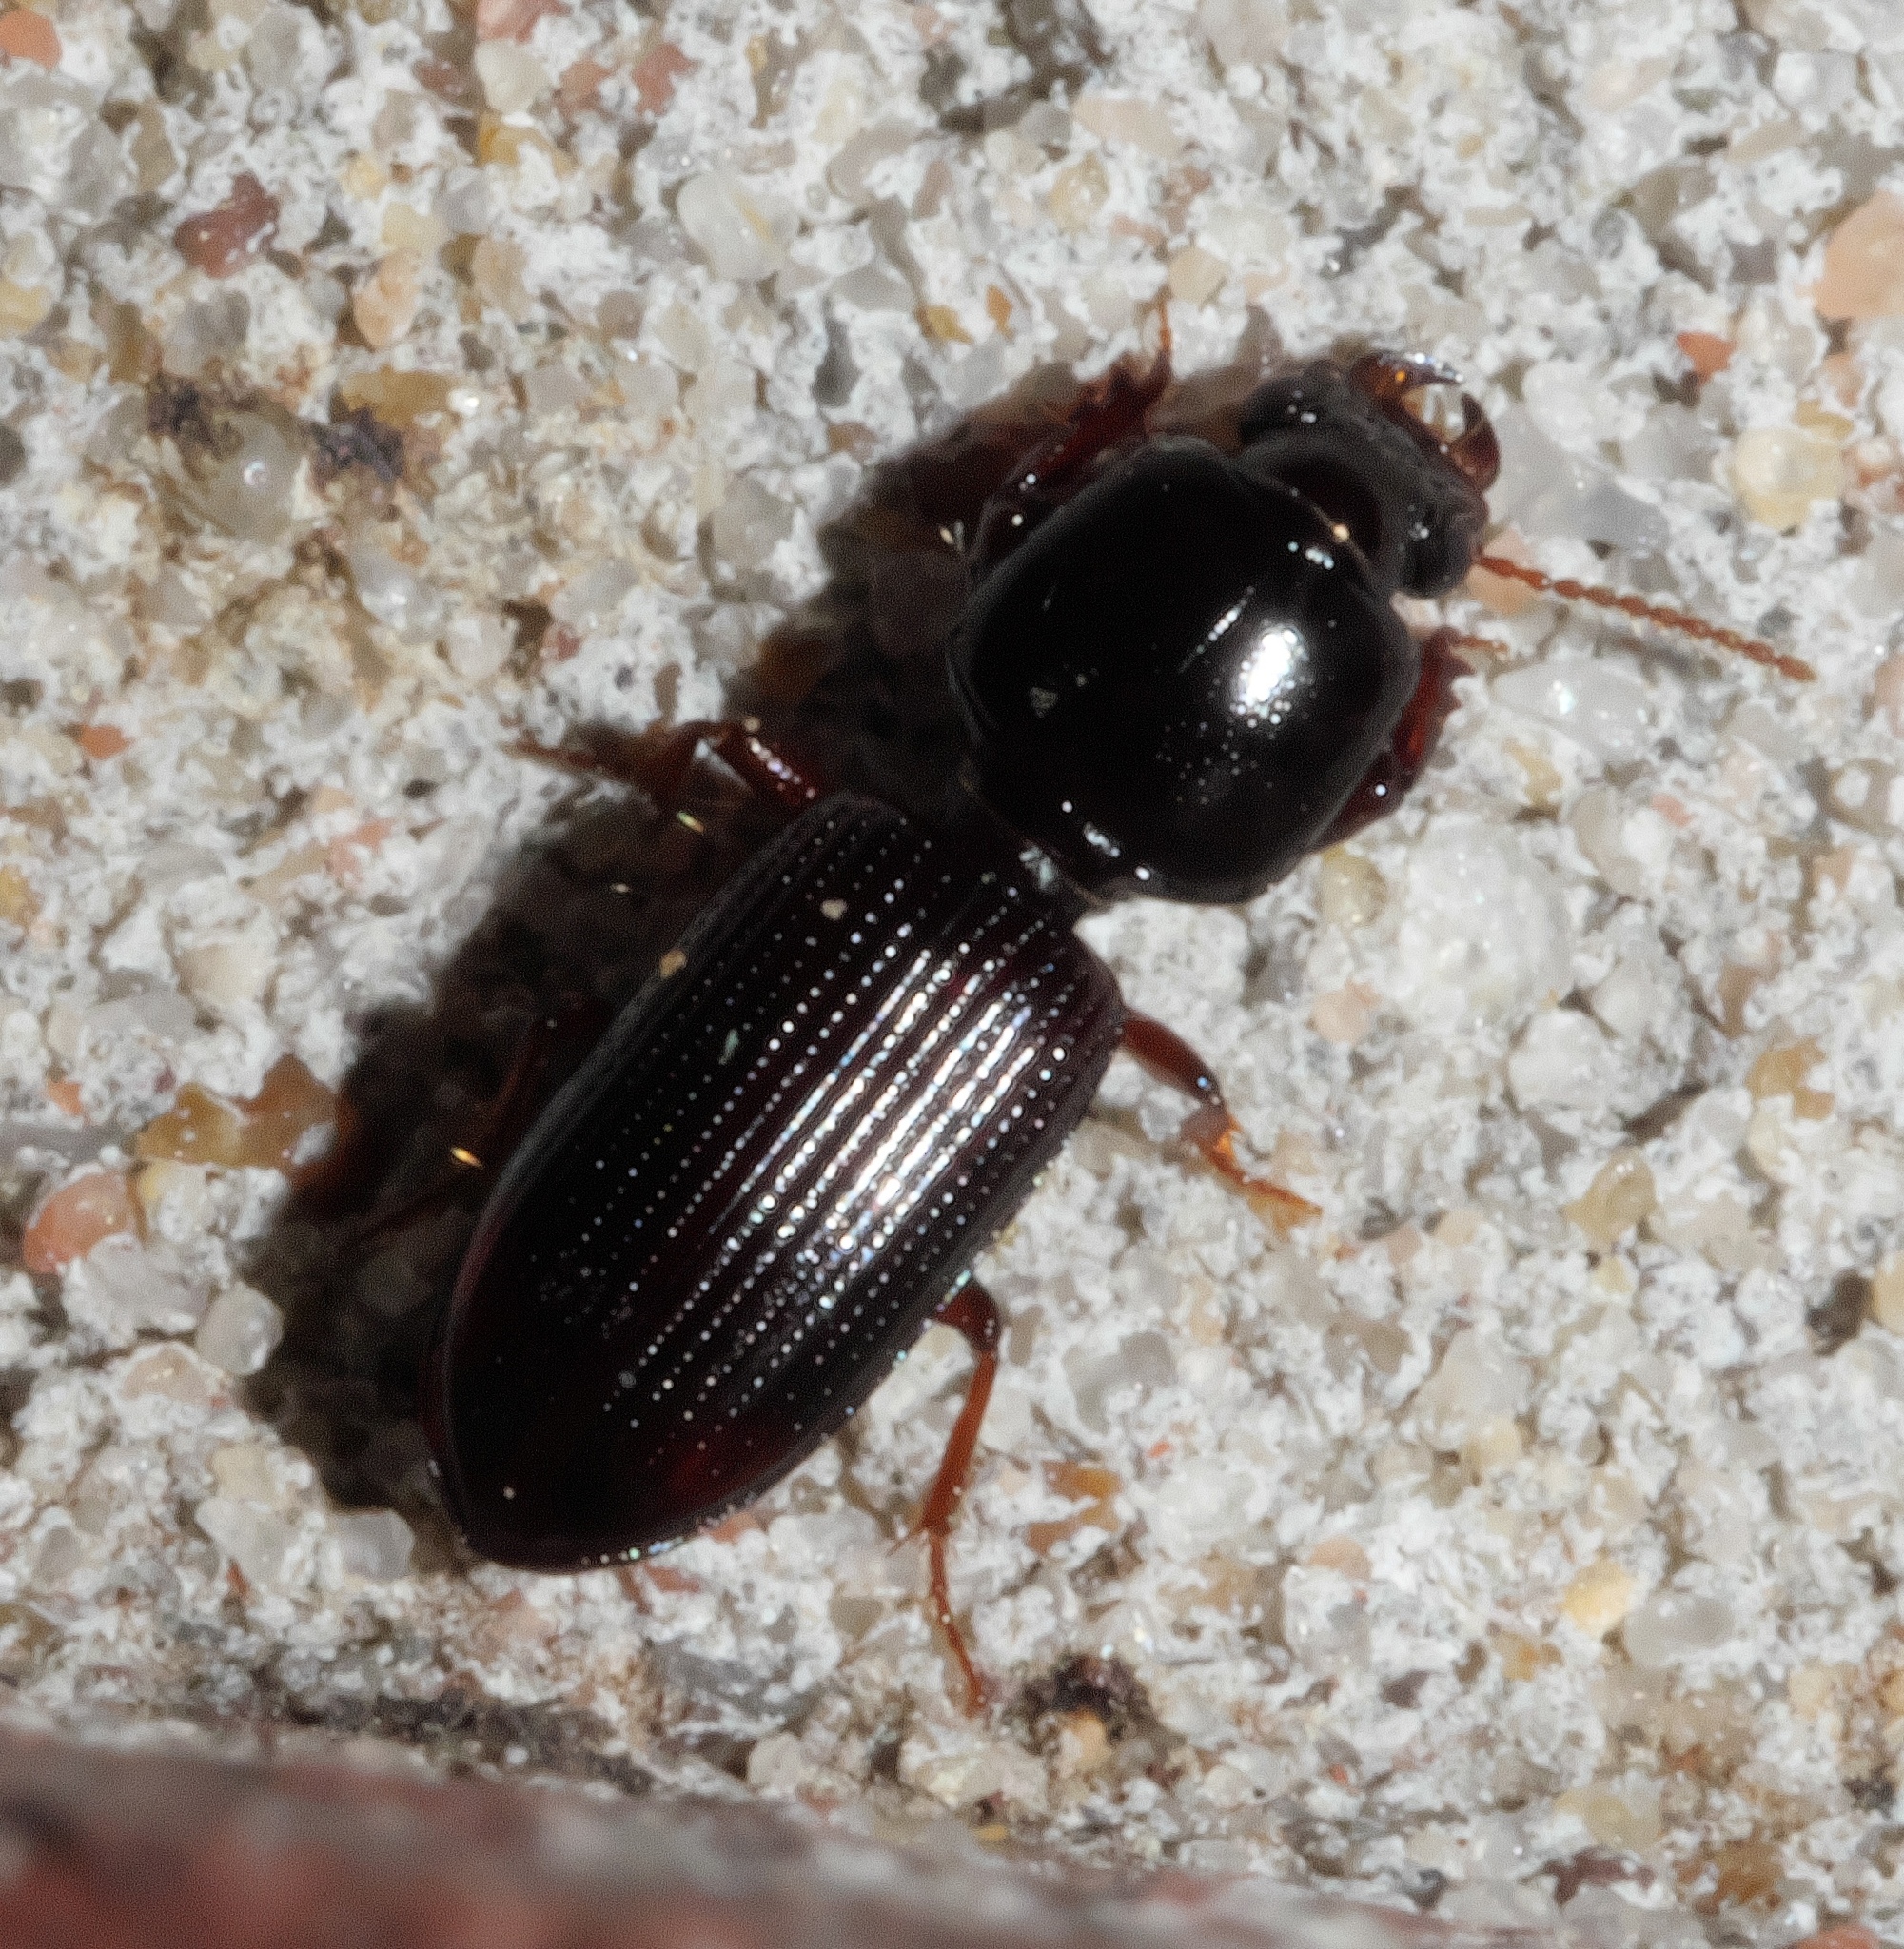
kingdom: Animalia
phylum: Arthropoda
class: Insecta
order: Coleoptera
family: Carabidae
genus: Clivina
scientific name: Clivina bipustulata
